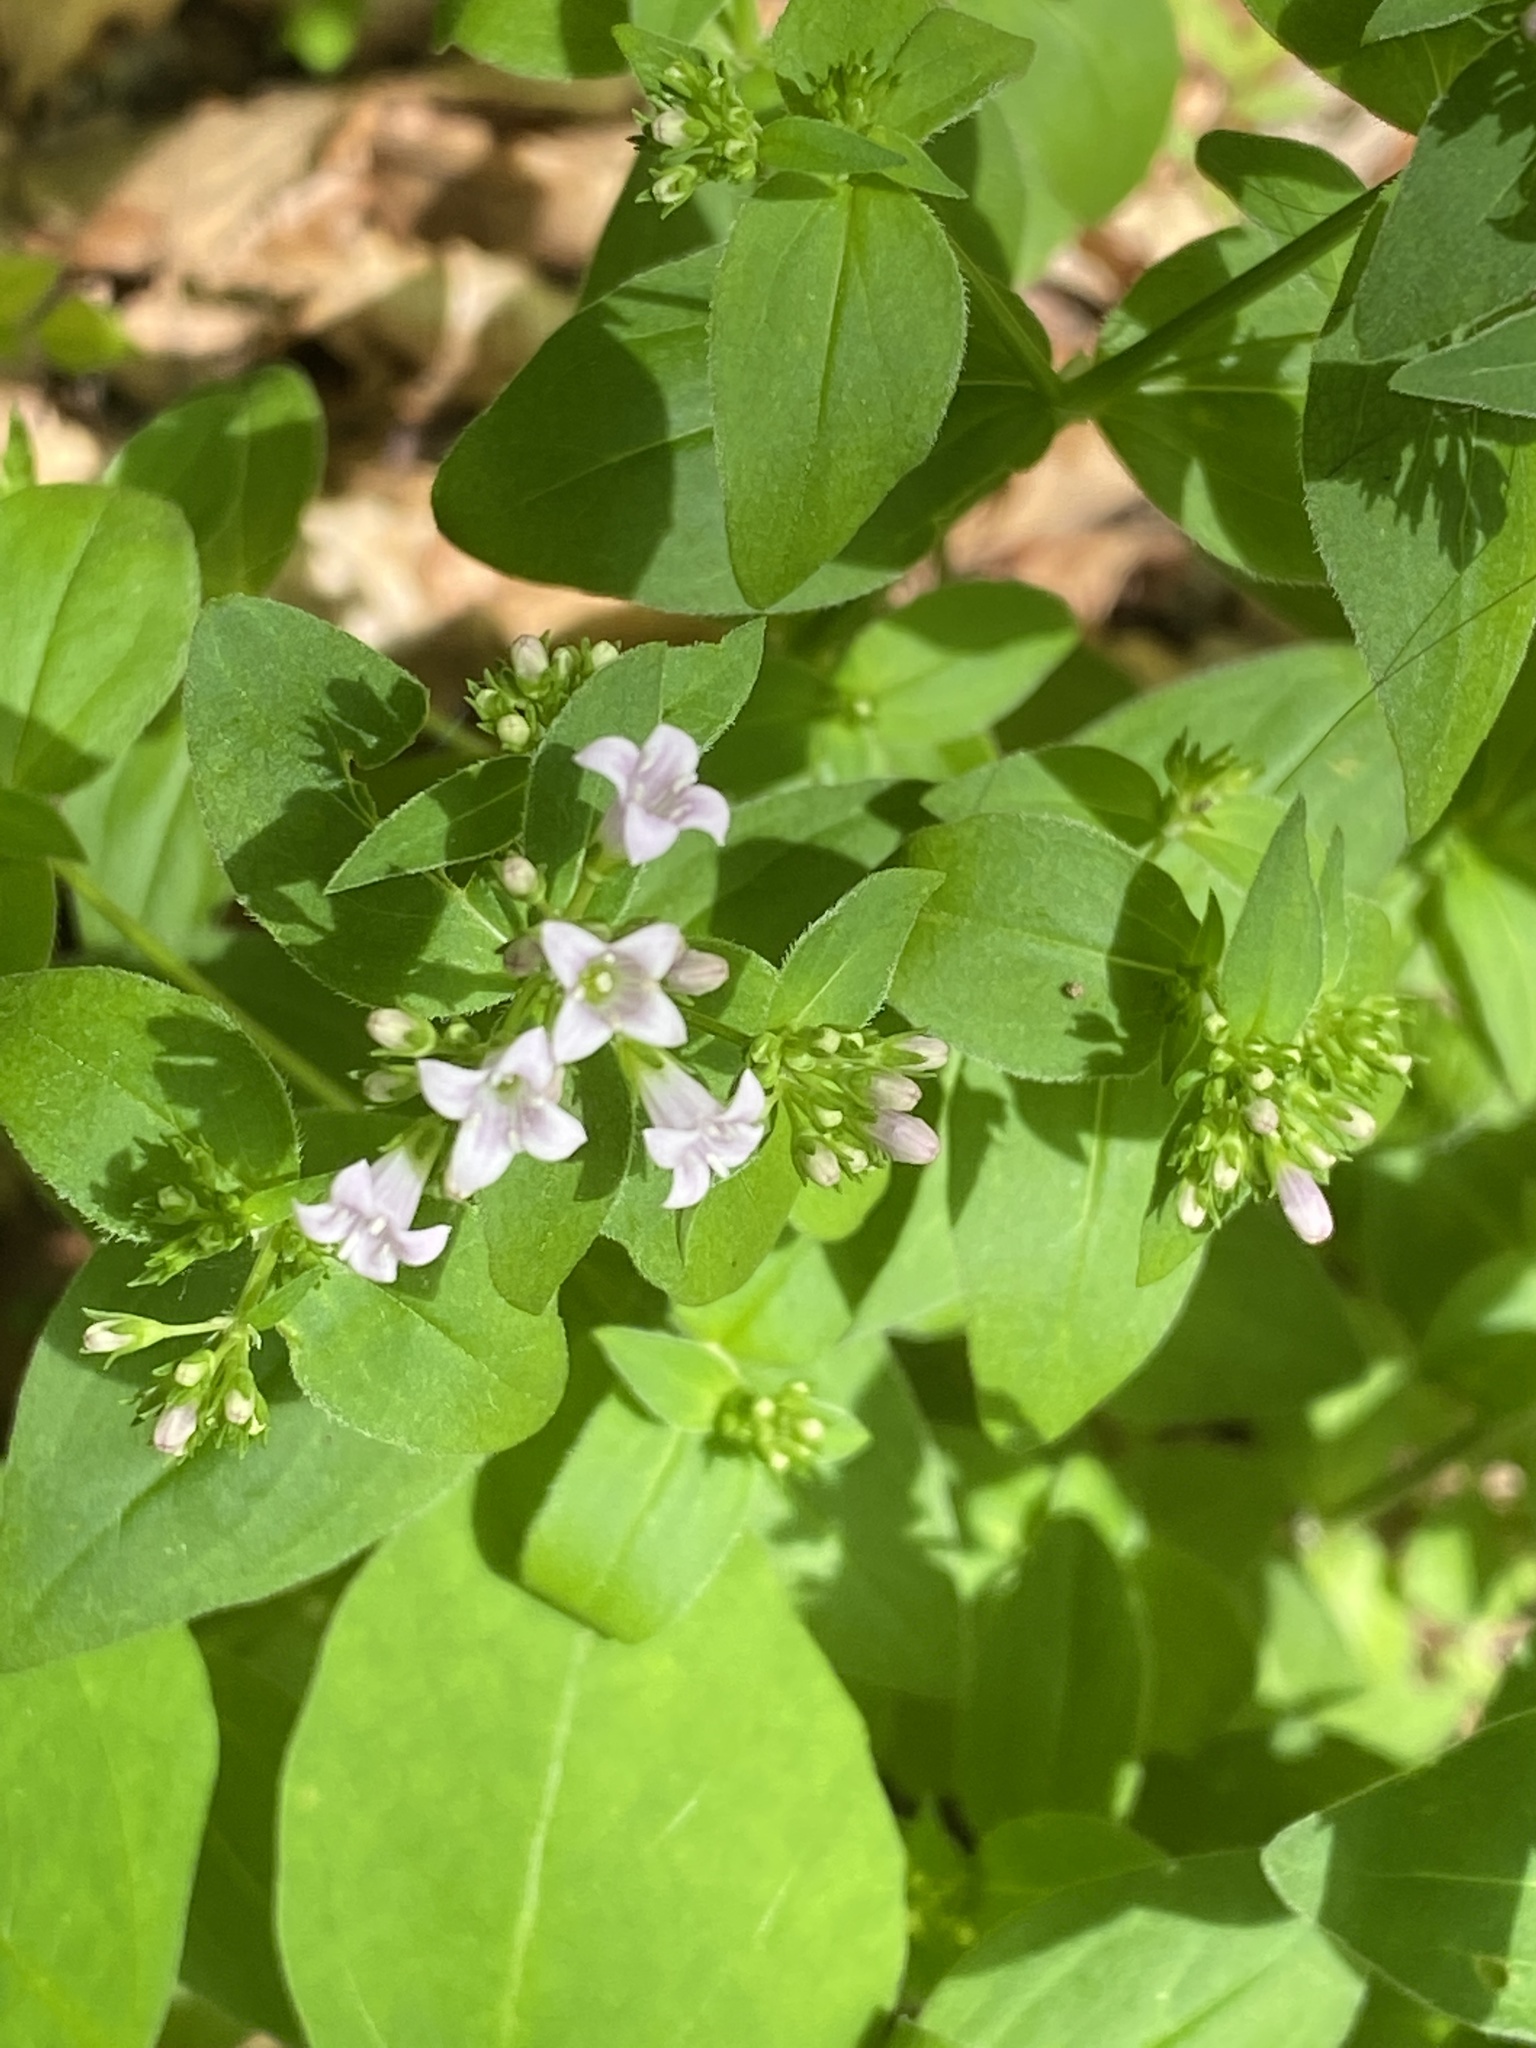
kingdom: Plantae
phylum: Tracheophyta
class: Magnoliopsida
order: Gentianales
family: Rubiaceae
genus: Houstonia
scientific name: Houstonia purpurea
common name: Summer bluet
